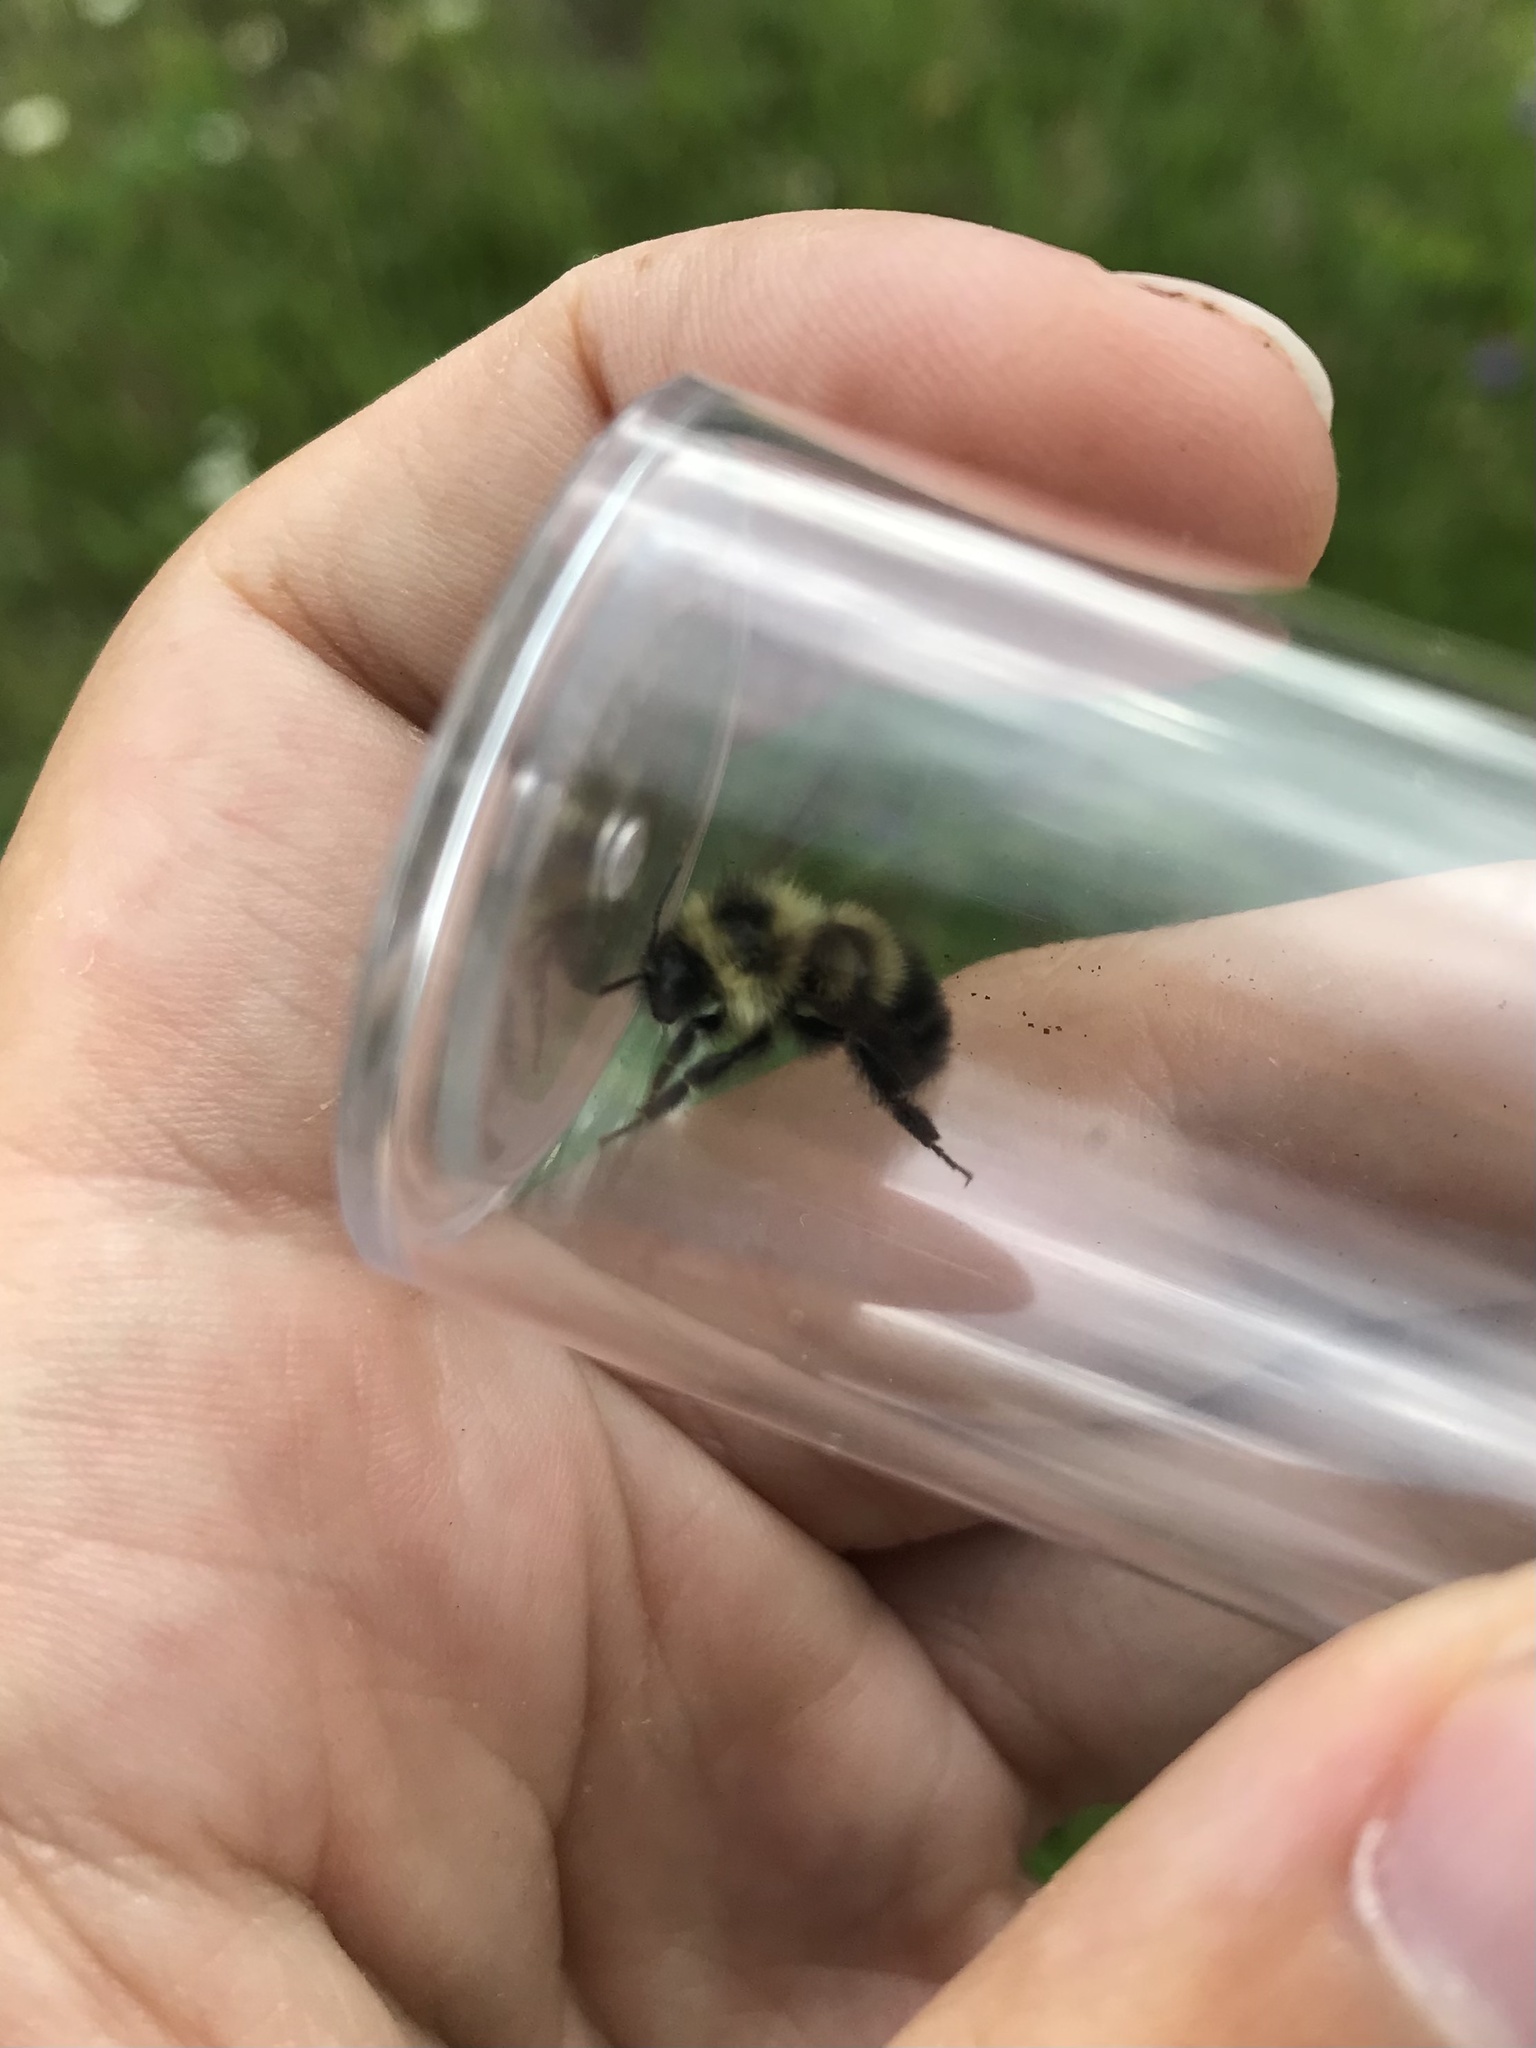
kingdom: Animalia
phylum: Arthropoda
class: Insecta
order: Hymenoptera
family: Apidae
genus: Bombus
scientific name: Bombus sandersoni
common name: Sanderson bumble bee
